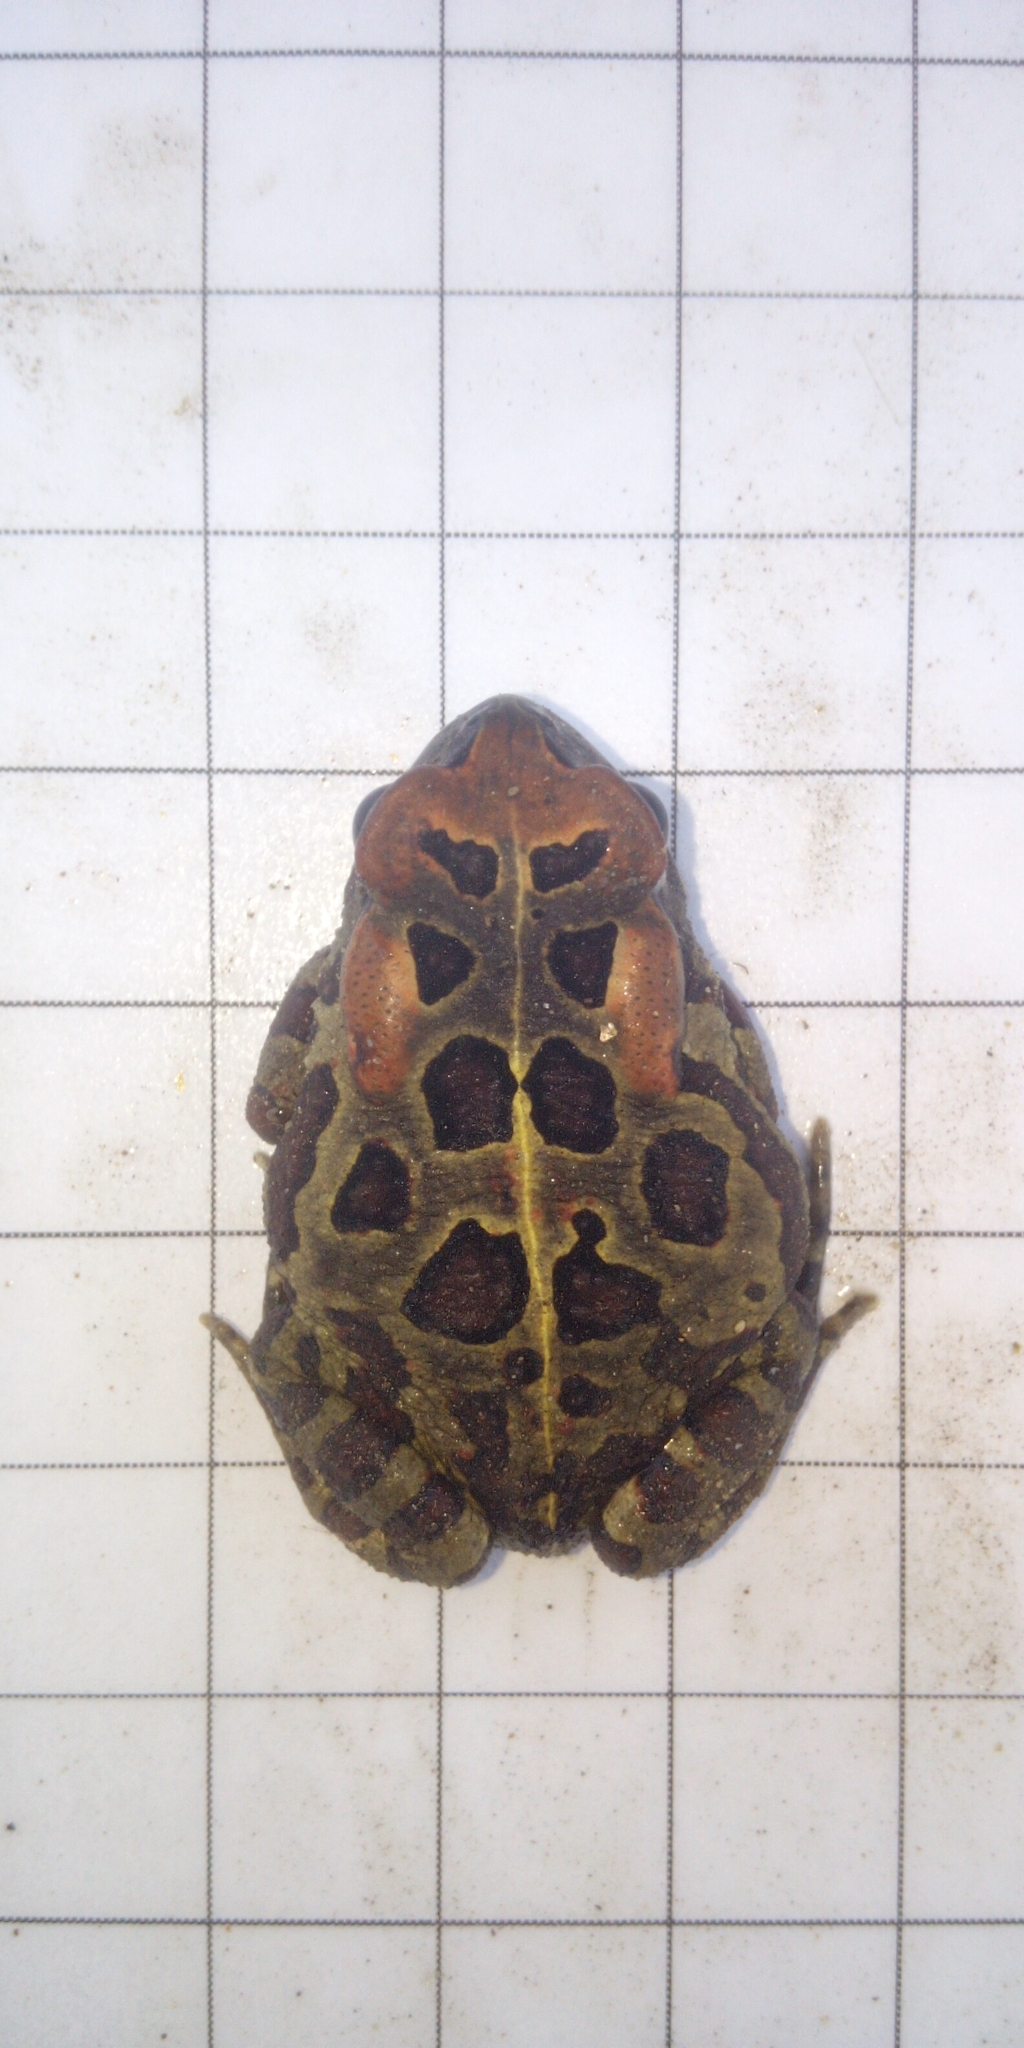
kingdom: Animalia
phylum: Chordata
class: Amphibia
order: Anura
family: Bufonidae
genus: Sclerophrys
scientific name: Sclerophrys pantherina
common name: Panther toad
